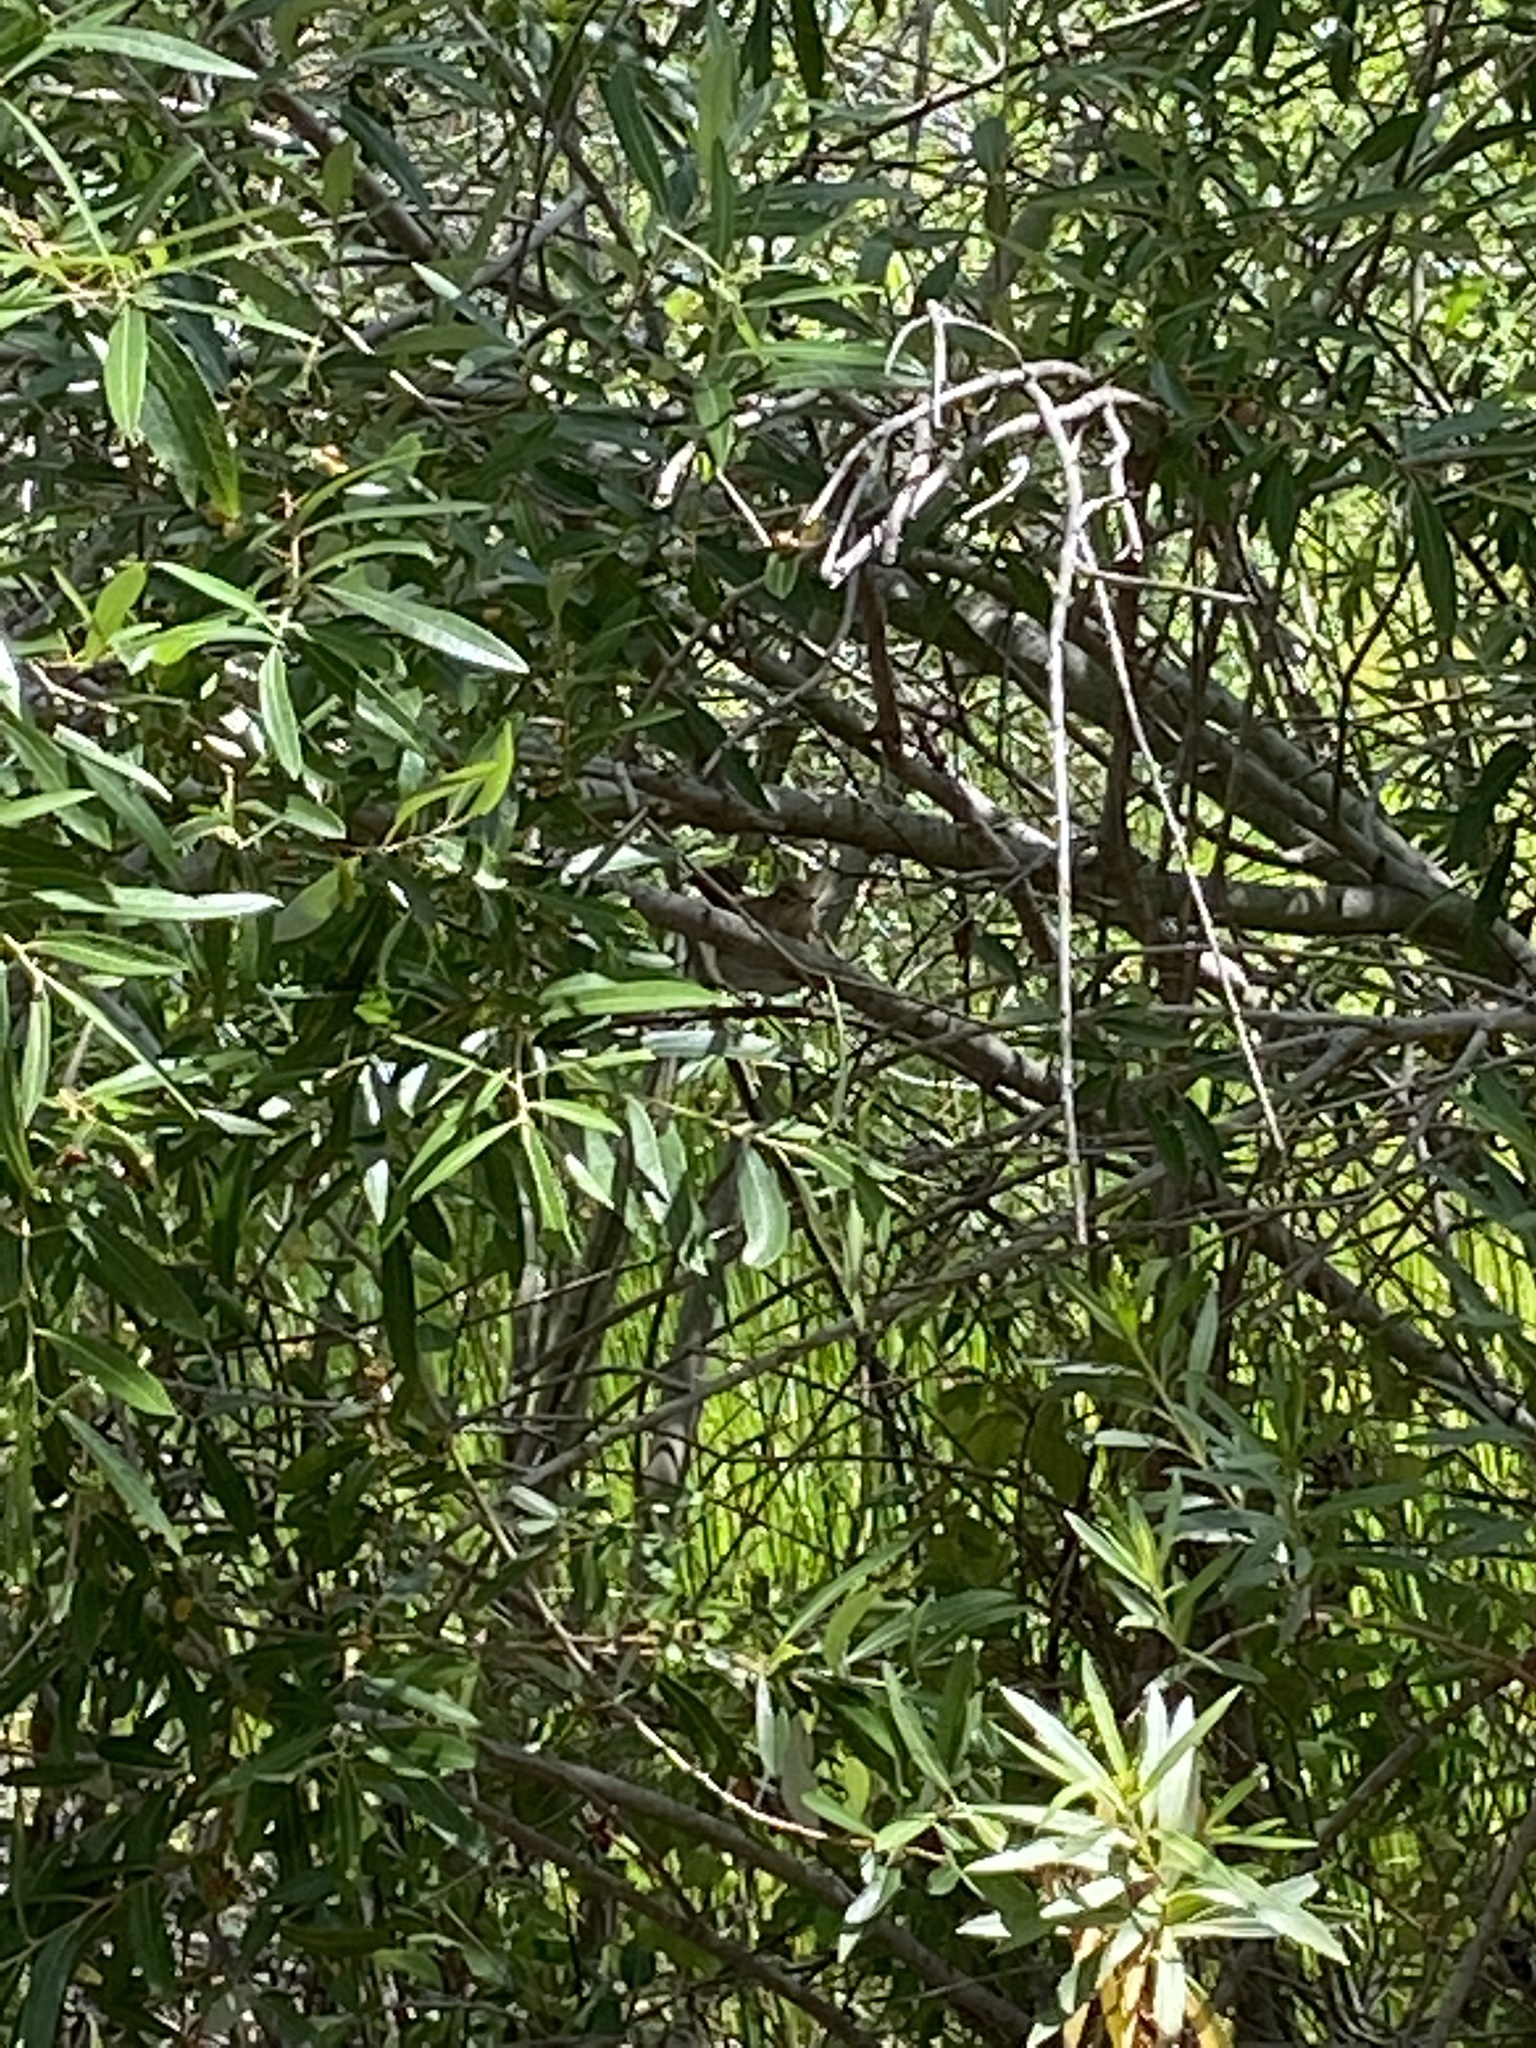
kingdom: Animalia
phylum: Chordata
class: Aves
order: Passeriformes
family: Turdidae
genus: Catharus
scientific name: Catharus ustulatus
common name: Swainson's thrush
